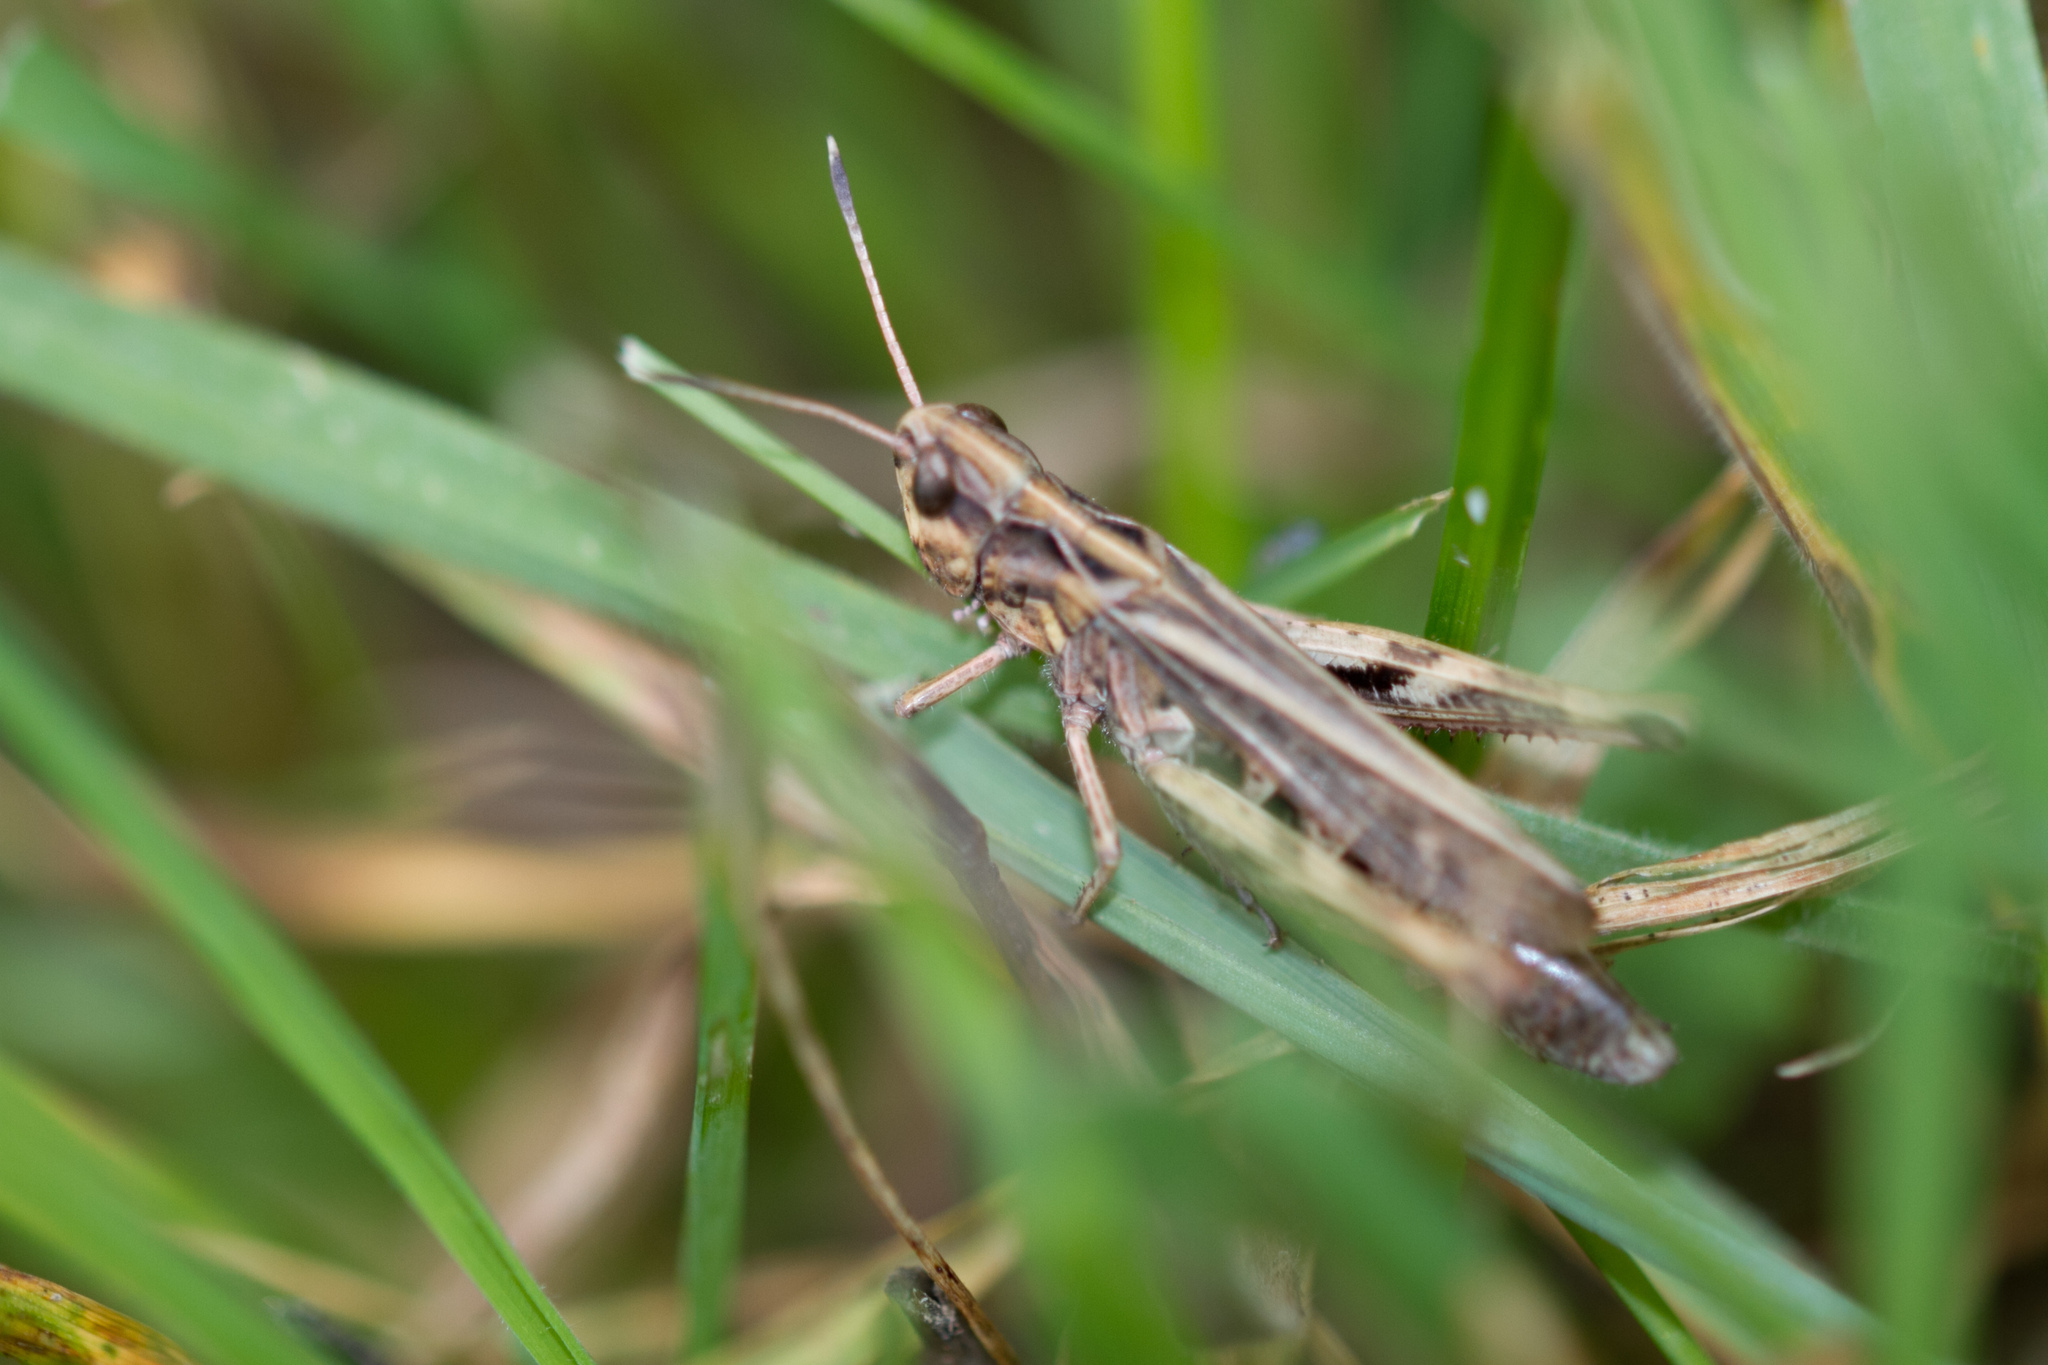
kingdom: Animalia
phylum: Arthropoda
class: Insecta
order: Orthoptera
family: Acrididae
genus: Gomphocerippus
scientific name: Gomphocerippus rufus
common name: Rufous grasshopper
